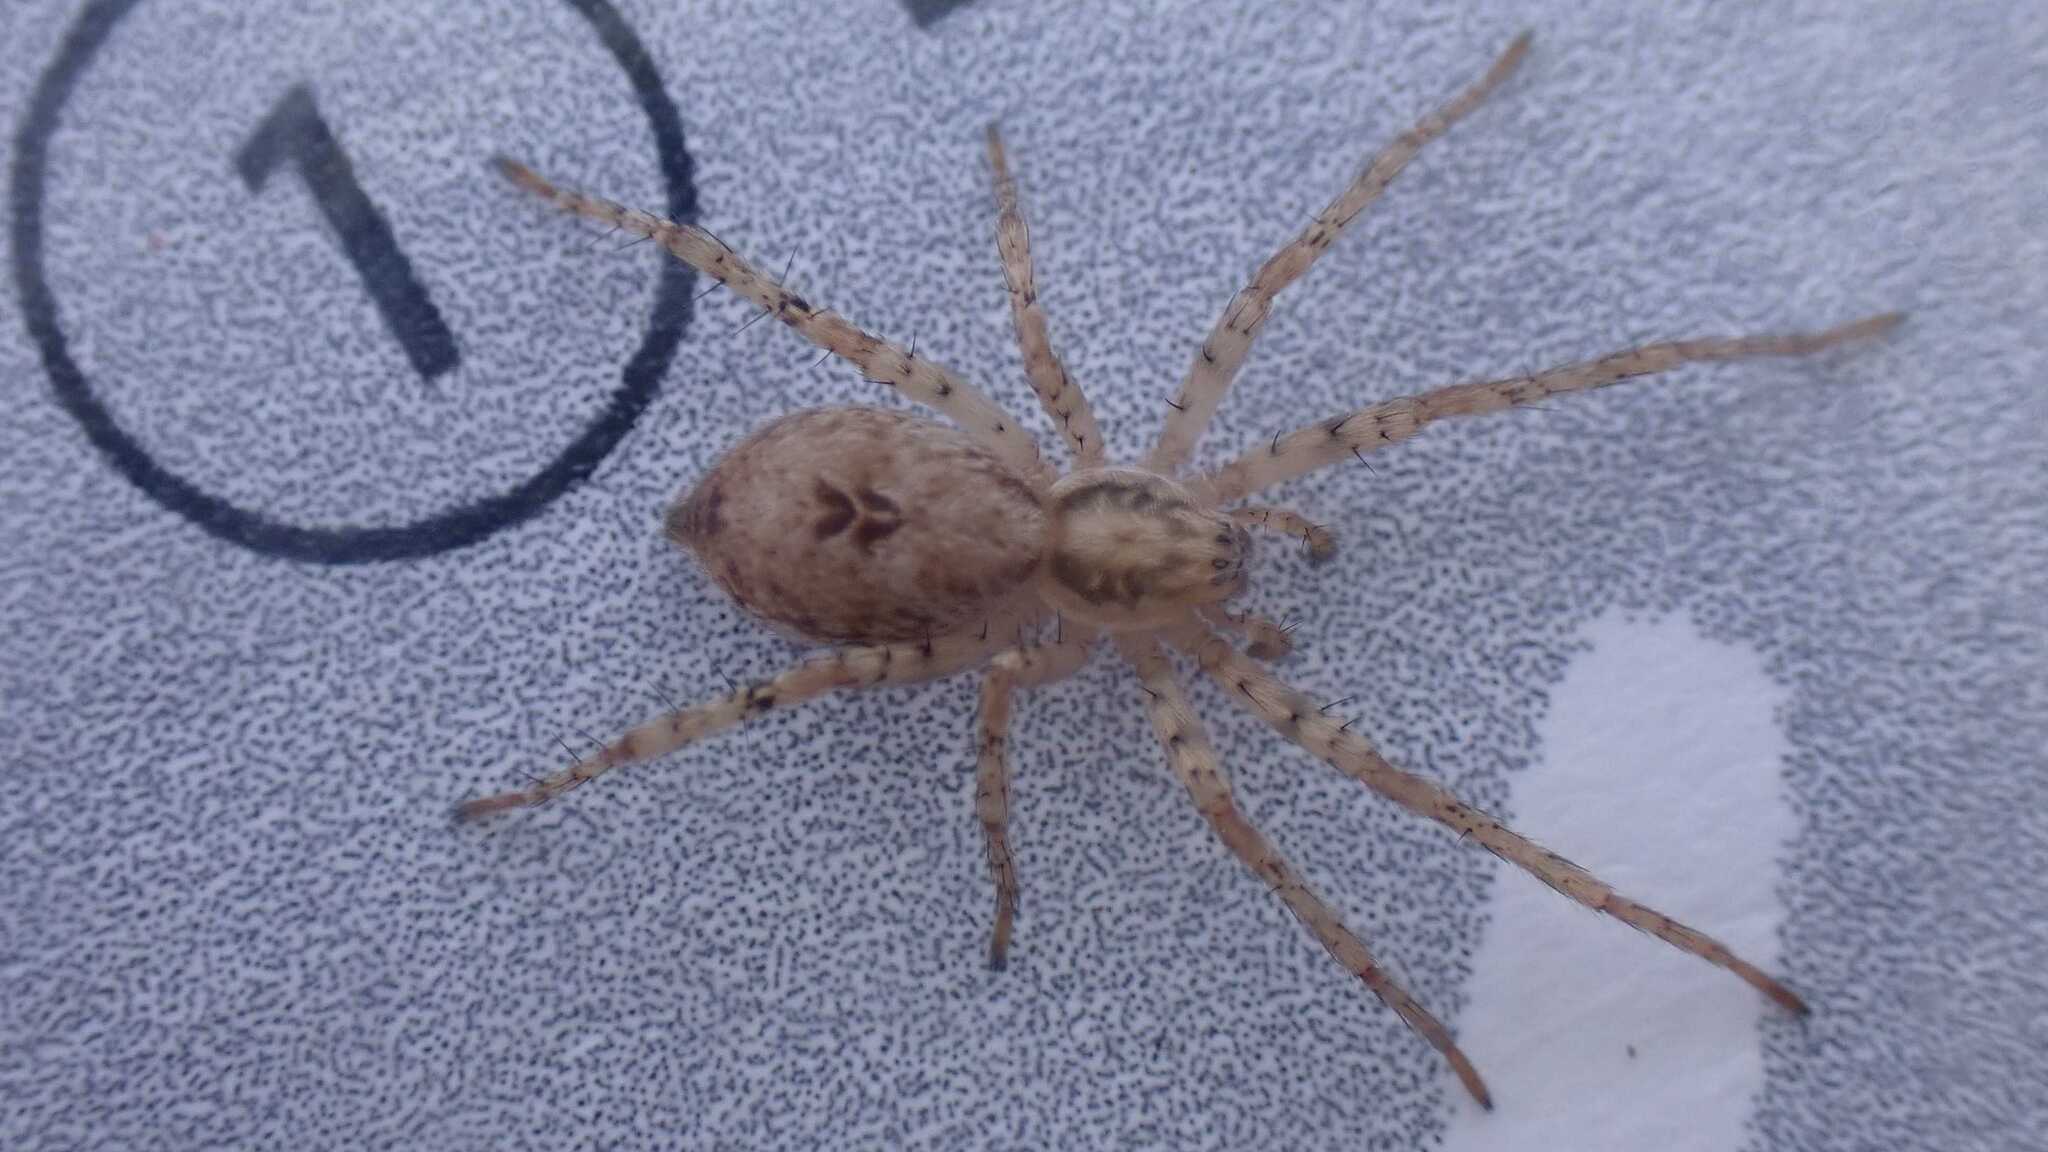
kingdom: Animalia
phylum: Arthropoda
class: Arachnida
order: Araneae
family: Anyphaenidae
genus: Anyphaena
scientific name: Anyphaena accentuata
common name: Buzzing spider
